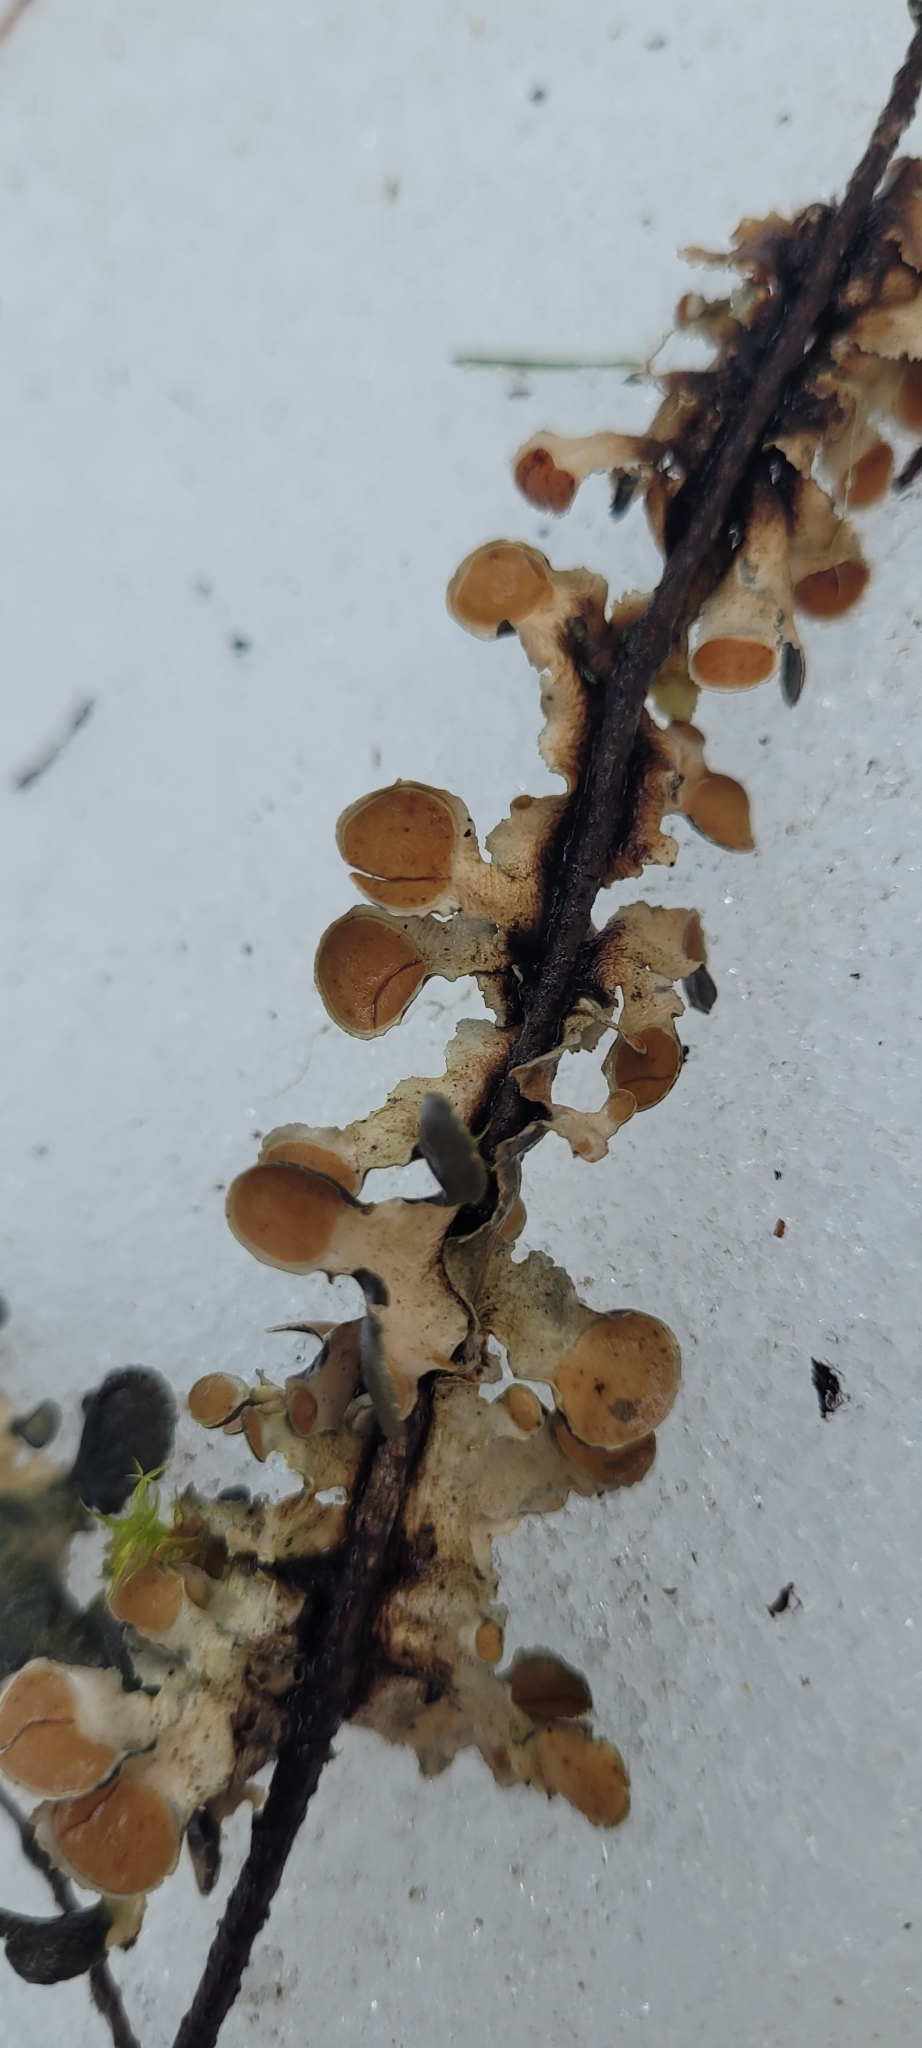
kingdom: Fungi
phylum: Ascomycota
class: Lecanoromycetes
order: Peltigerales
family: Nephromataceae
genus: Nephroma
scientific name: Nephroma laevigatum
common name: Mustard kidney lichen
